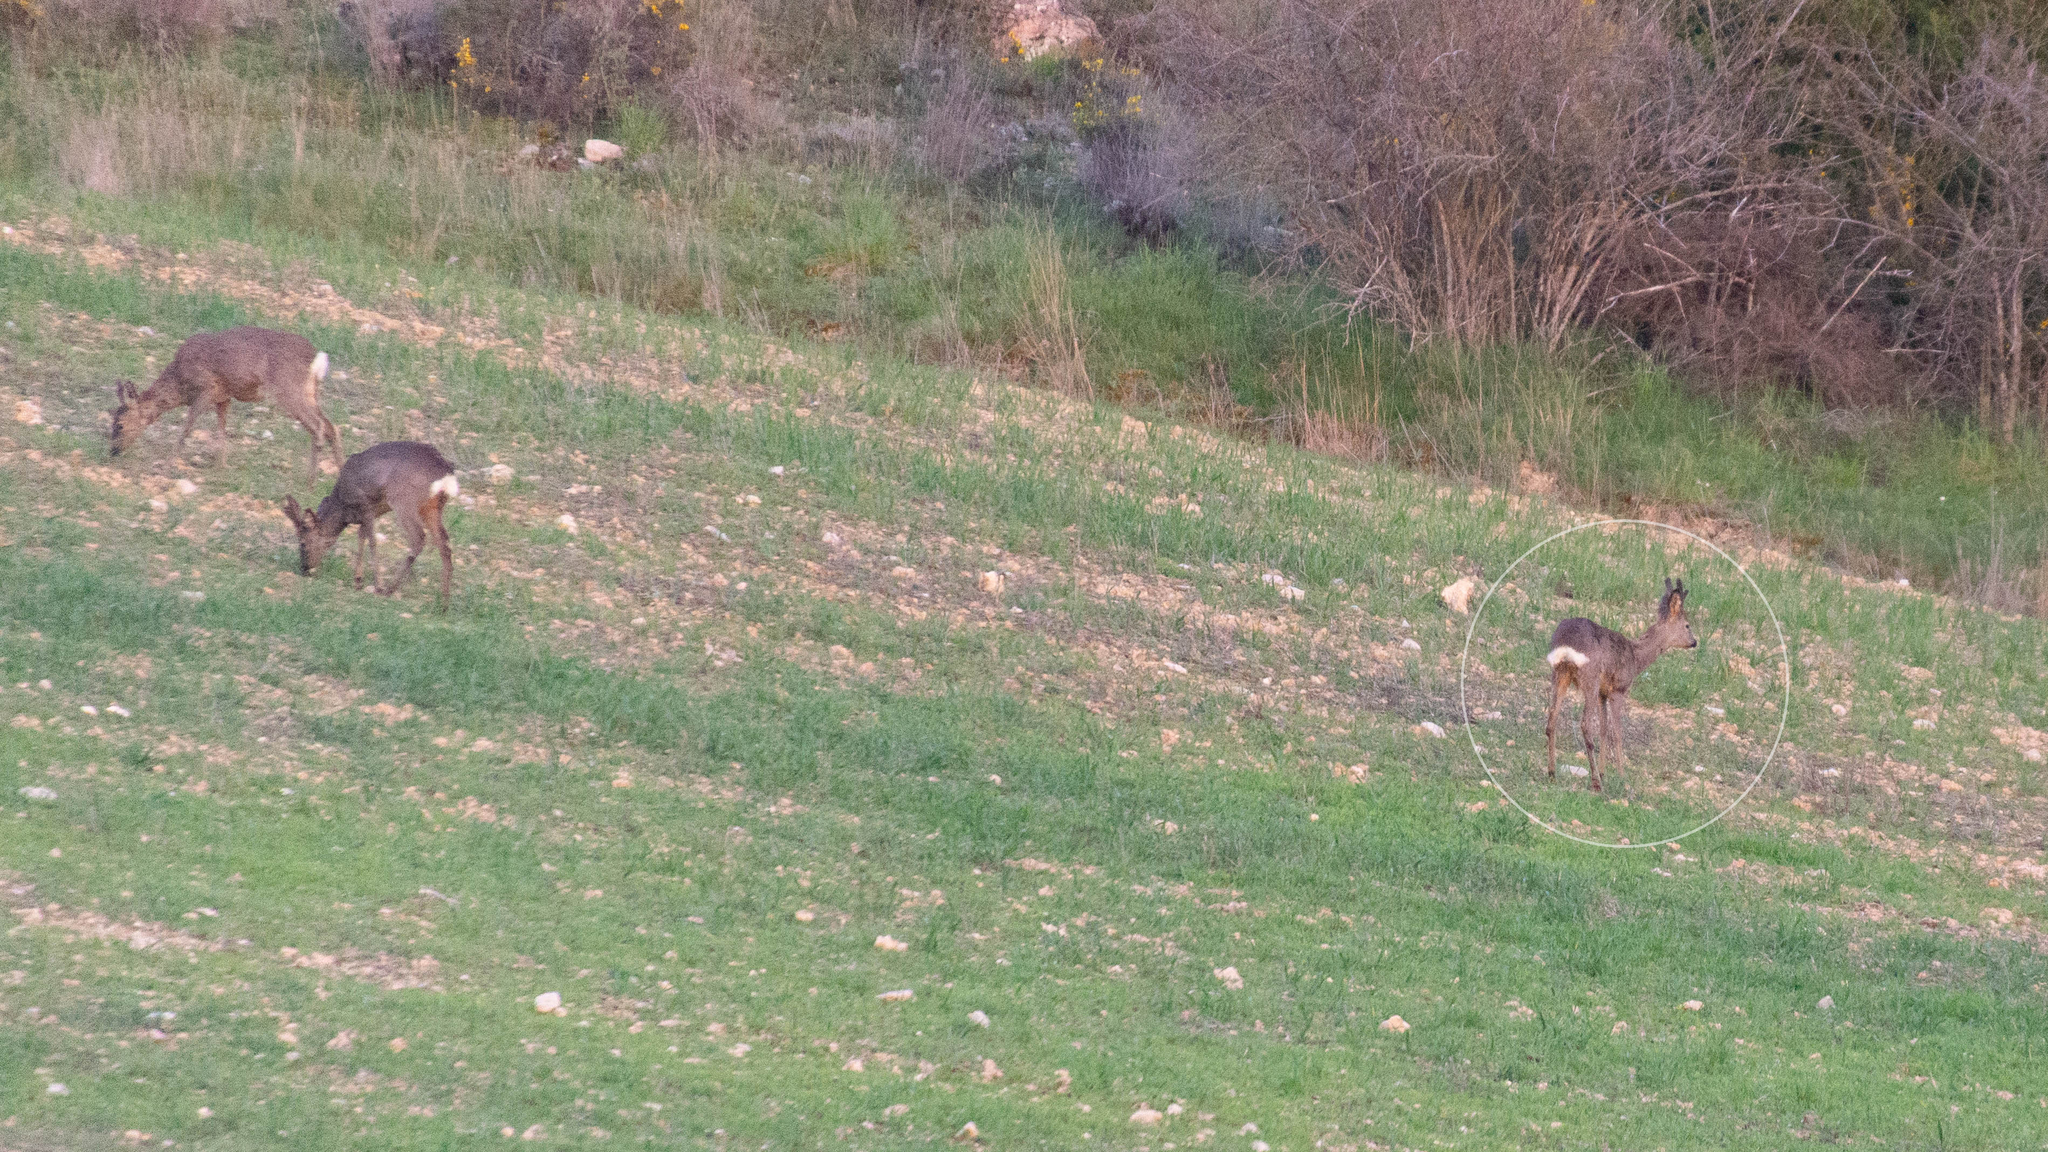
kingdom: Animalia
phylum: Chordata
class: Mammalia
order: Artiodactyla
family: Cervidae
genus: Capreolus
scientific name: Capreolus capreolus
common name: Western roe deer
